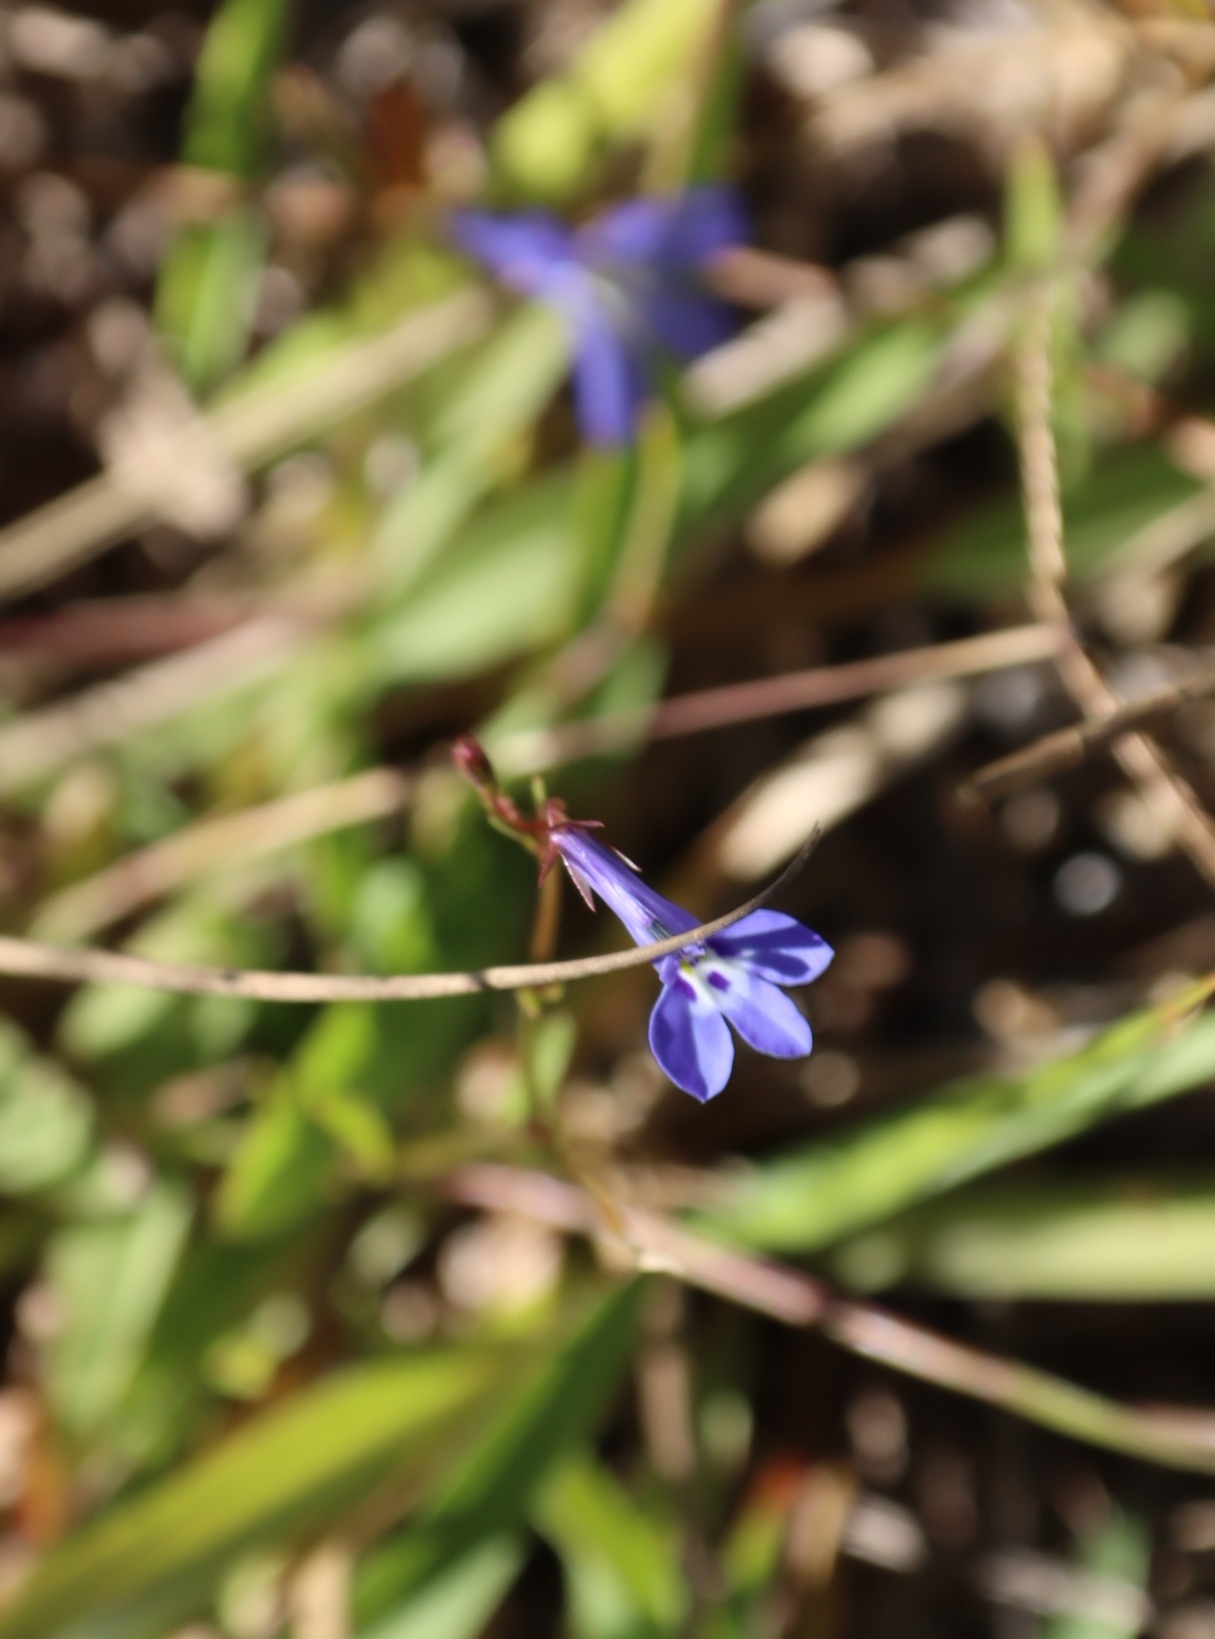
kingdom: Plantae
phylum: Tracheophyta
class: Magnoliopsida
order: Asterales
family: Campanulaceae
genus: Lobelia
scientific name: Lobelia erinus
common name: Edging lobelia
